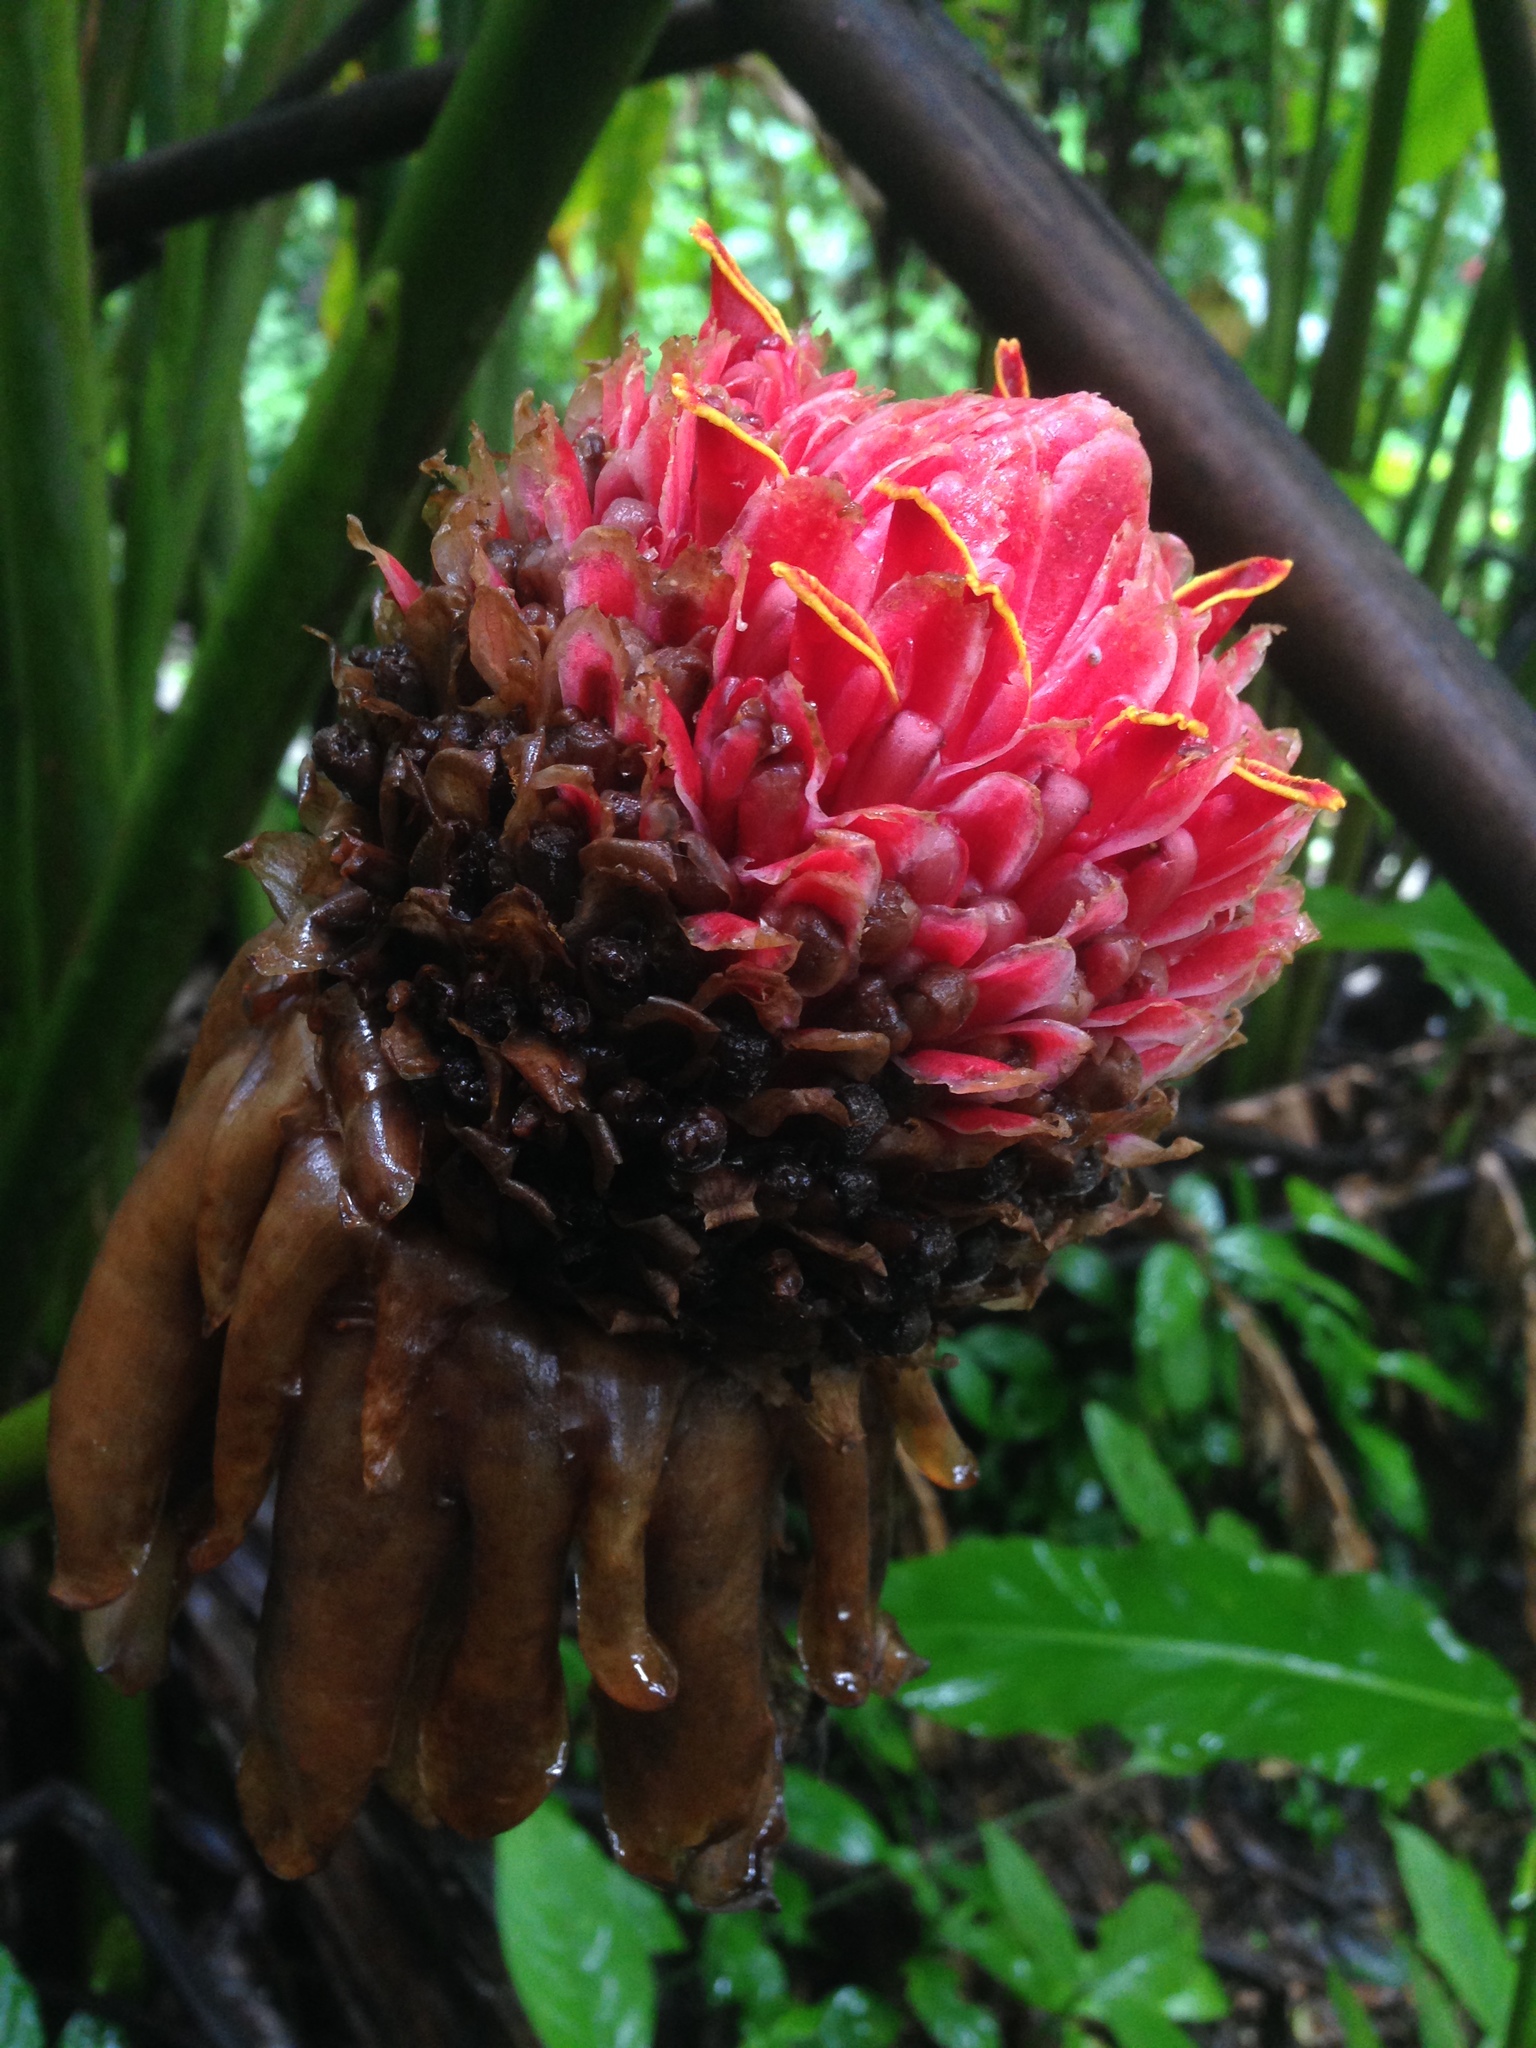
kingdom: Plantae
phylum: Tracheophyta
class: Liliopsida
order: Zingiberales
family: Zingiberaceae
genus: Etlingera
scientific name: Etlingera elatior
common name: Philippine waxflower
